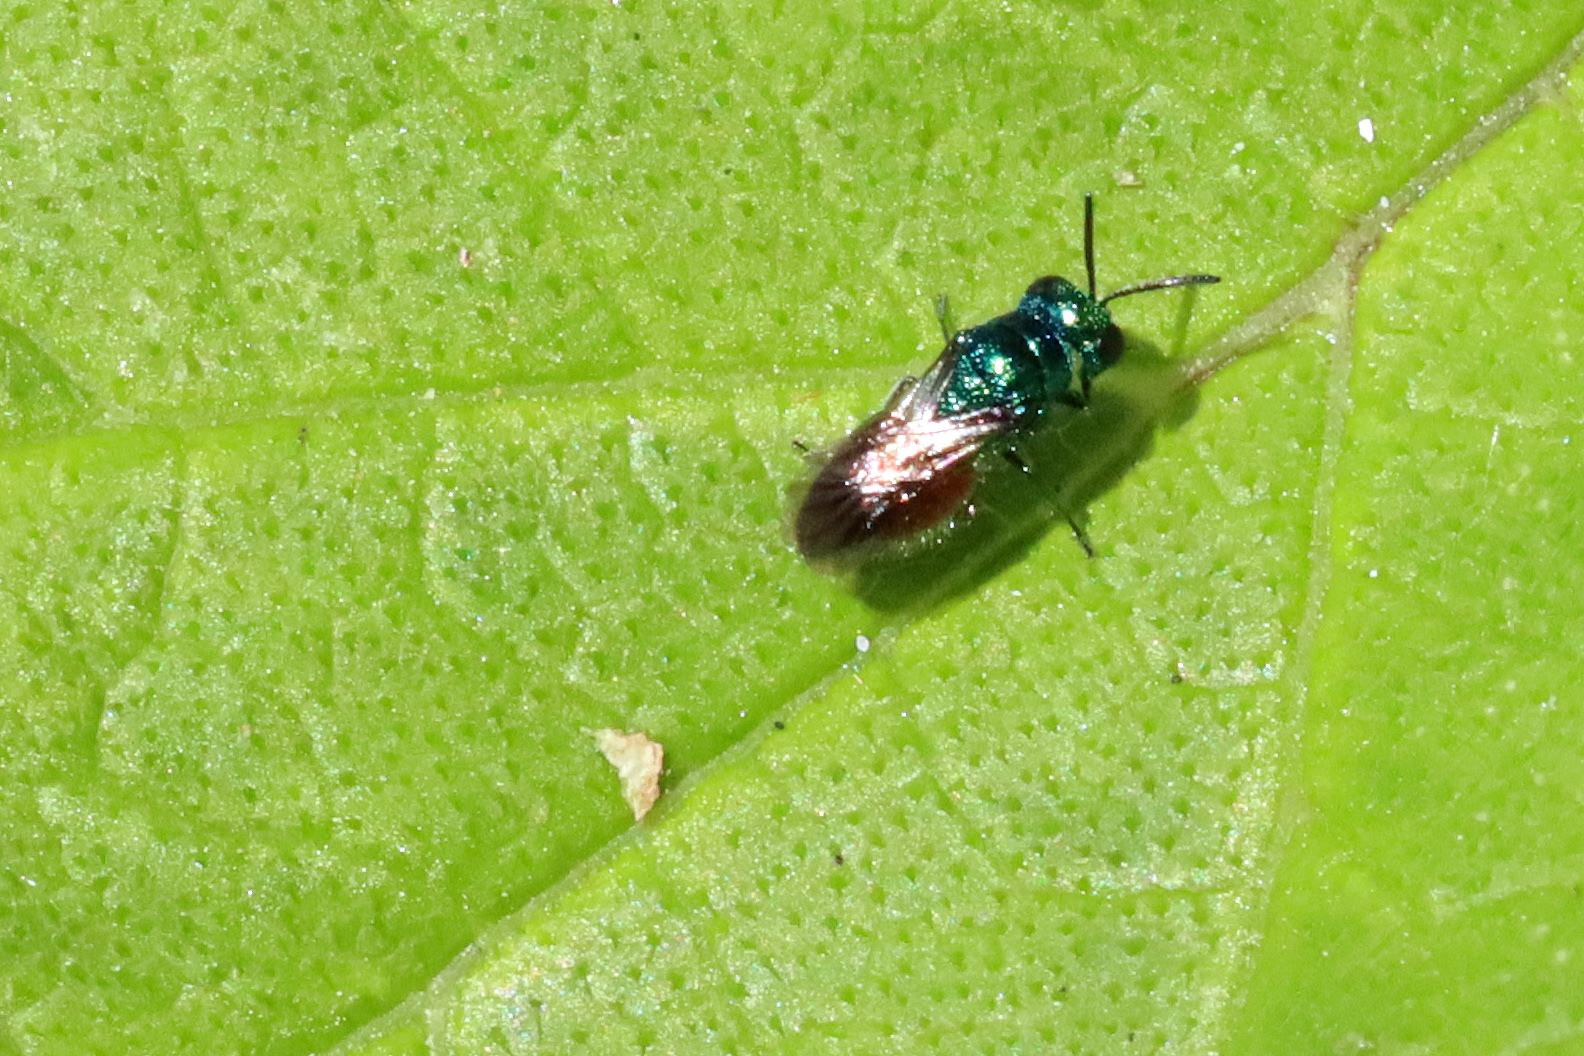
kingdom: Animalia
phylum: Arthropoda
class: Insecta
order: Hymenoptera
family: Chrysididae
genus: Pseudomalus
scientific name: Pseudomalus auratus
